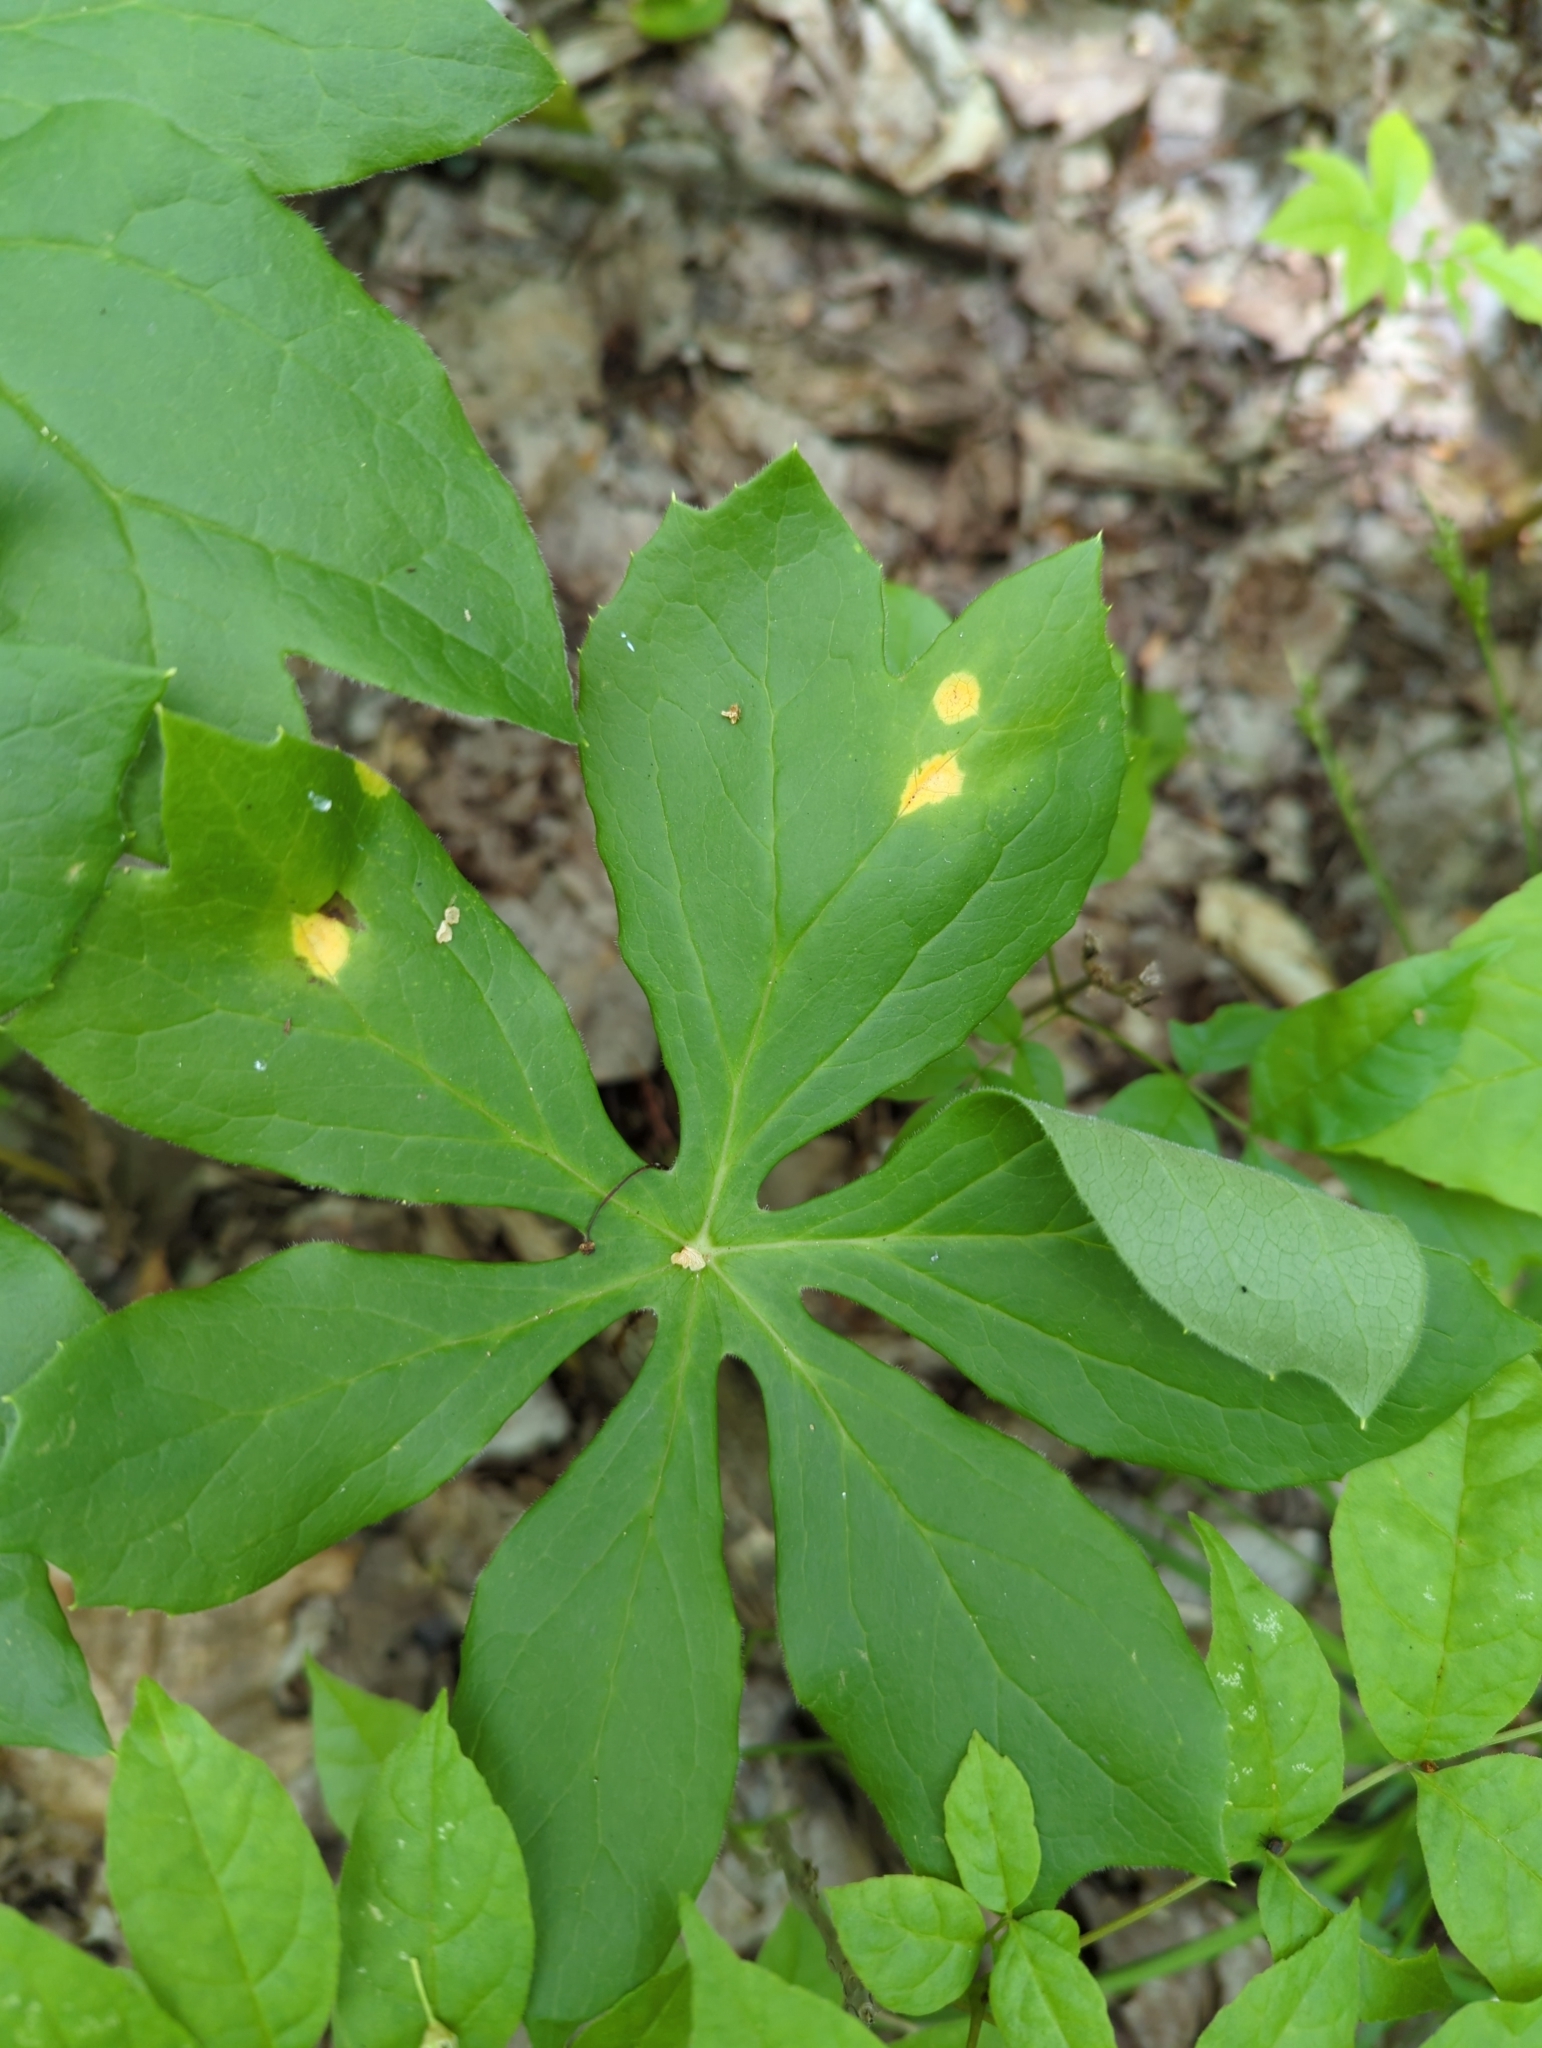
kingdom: Fungi
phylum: Basidiomycota
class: Pucciniomycetes
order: Pucciniales
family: Pucciniaceae
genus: Puccinia
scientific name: Puccinia podophylli
